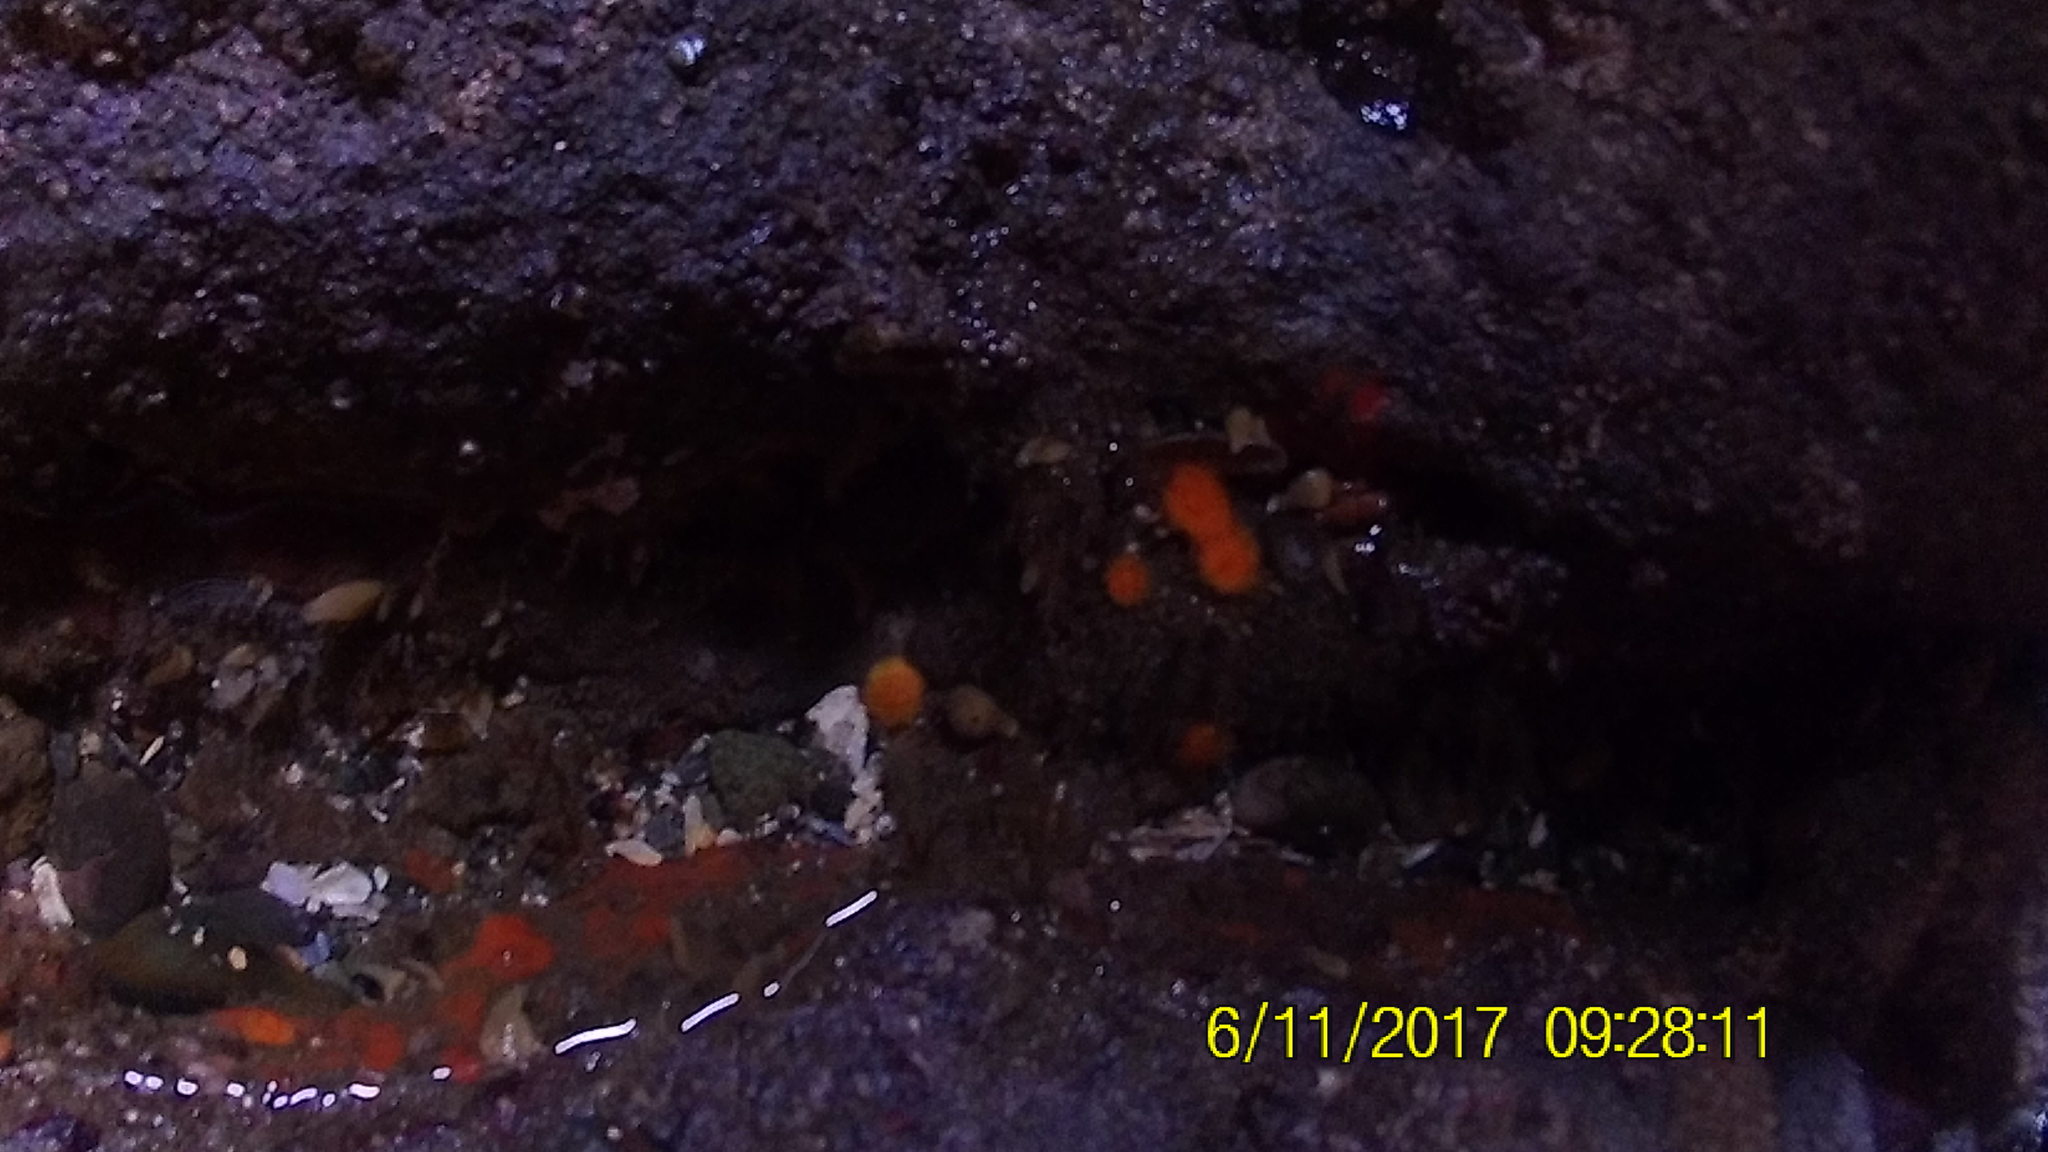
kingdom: Animalia
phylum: Cnidaria
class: Anthozoa
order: Scleractinia
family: Dendrophylliidae
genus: Balanophyllia
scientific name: Balanophyllia elegans
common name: Orange stony coral
